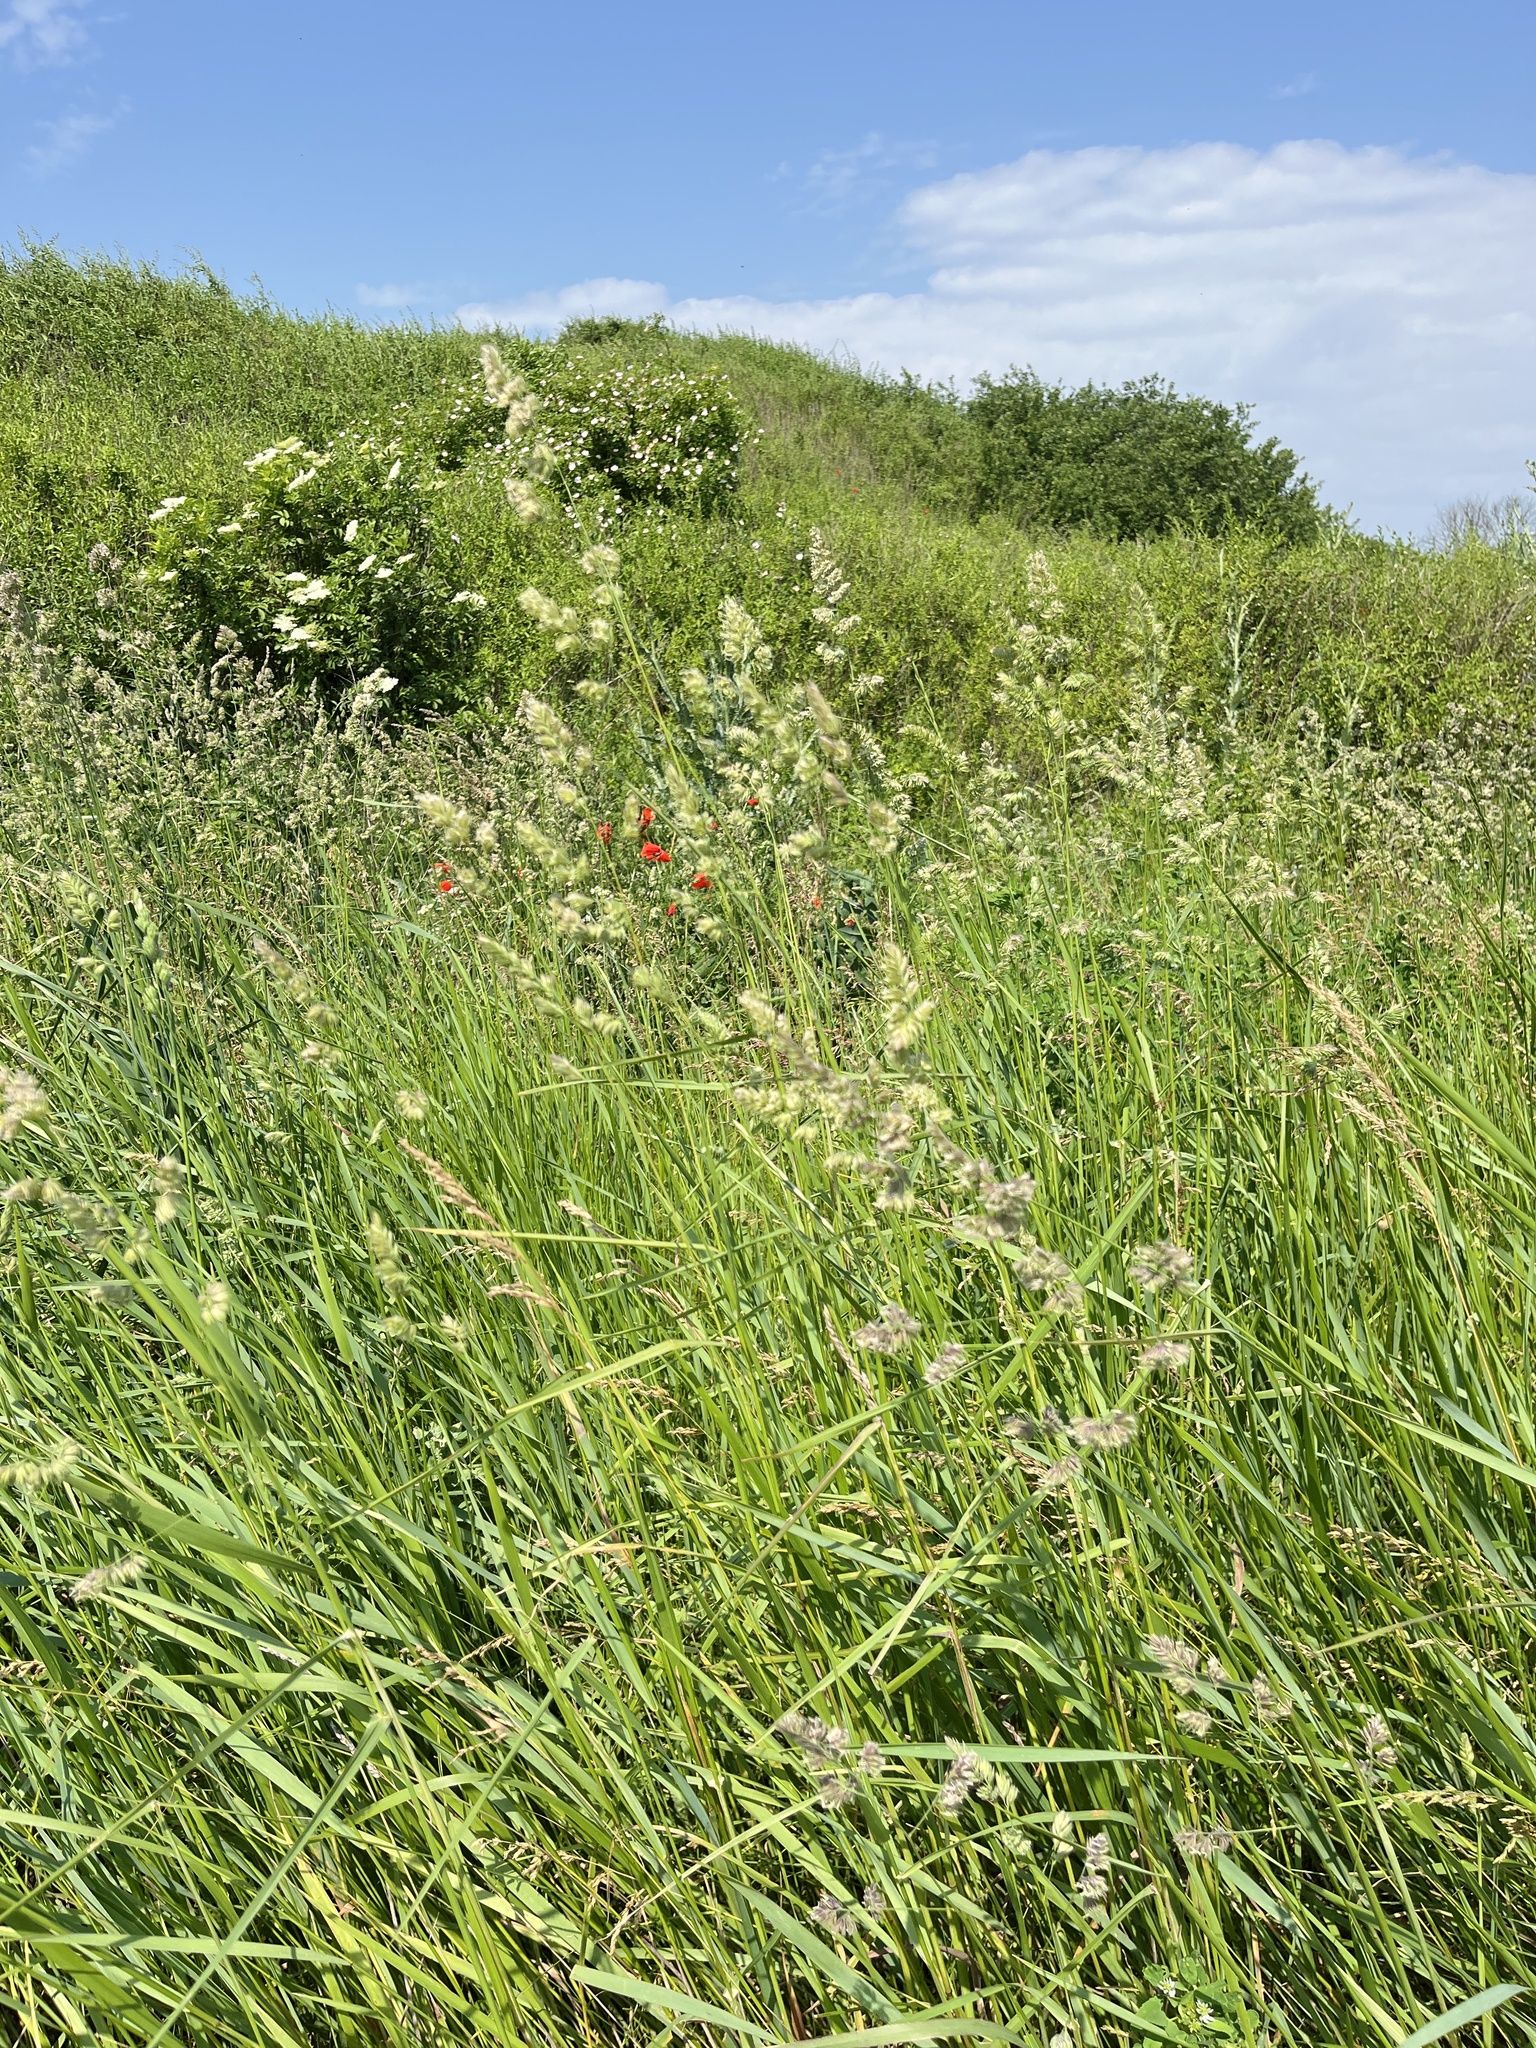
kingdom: Plantae
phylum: Tracheophyta
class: Liliopsida
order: Poales
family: Poaceae
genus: Dactylis
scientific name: Dactylis glomerata
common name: Orchardgrass
